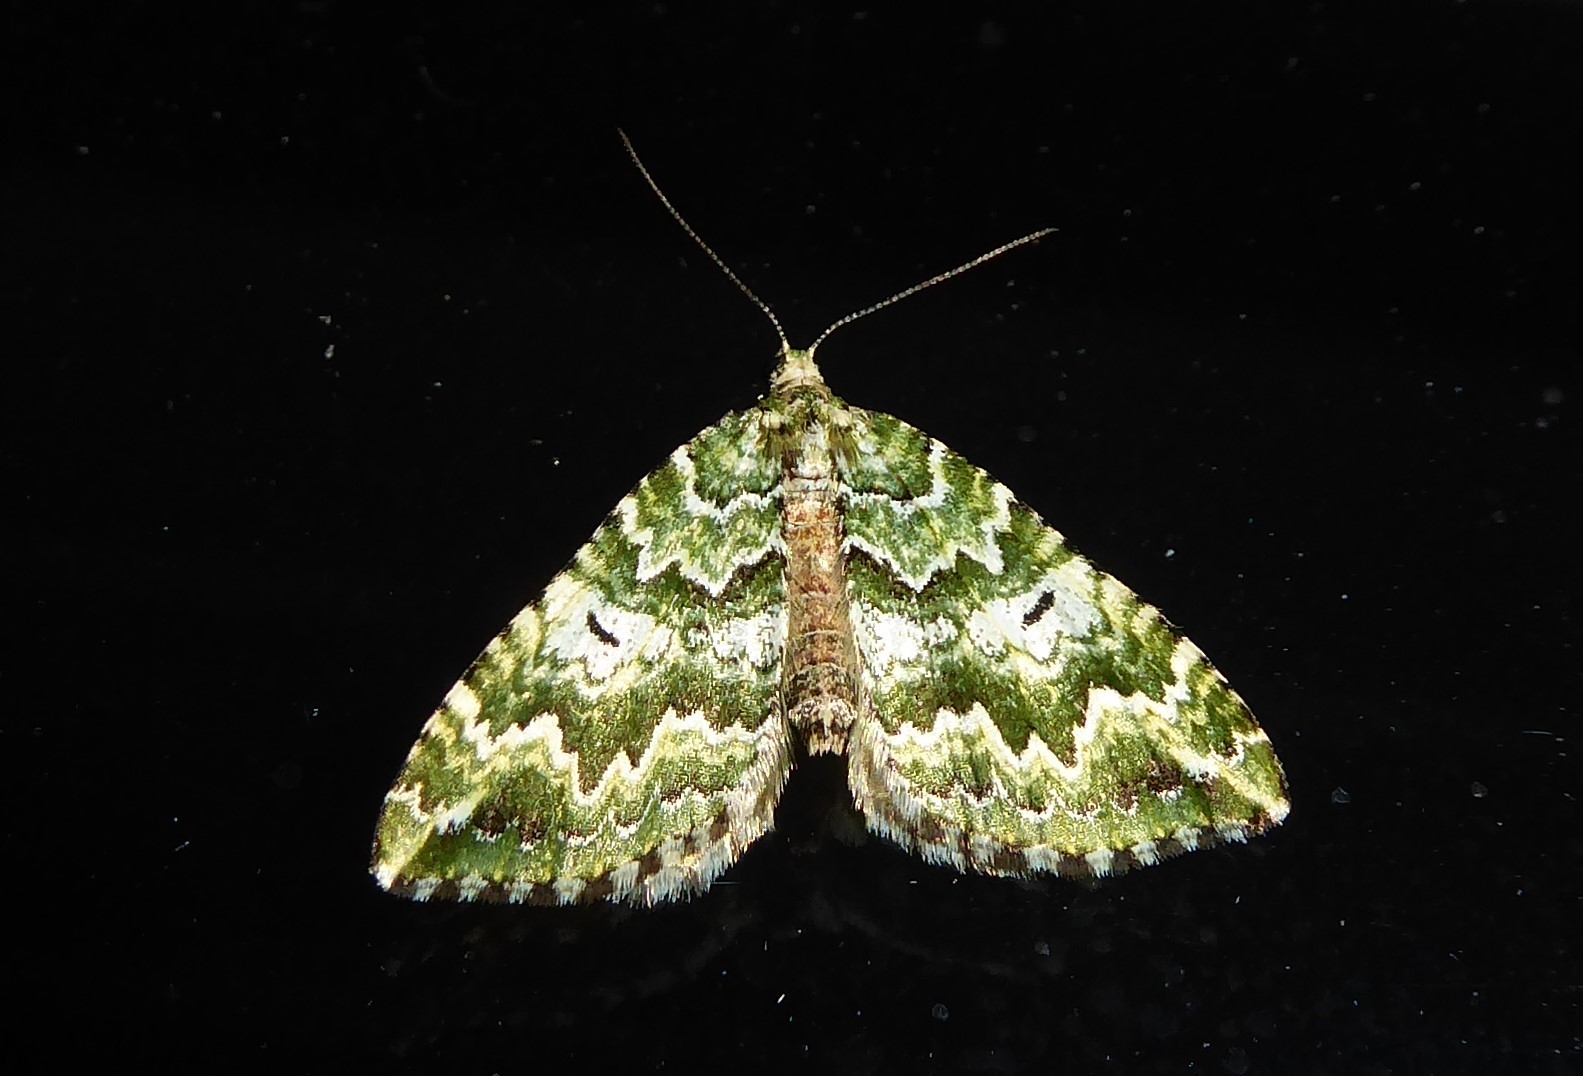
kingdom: Animalia
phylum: Arthropoda
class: Insecta
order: Lepidoptera
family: Geometridae
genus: Asaphodes
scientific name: Asaphodes beata
